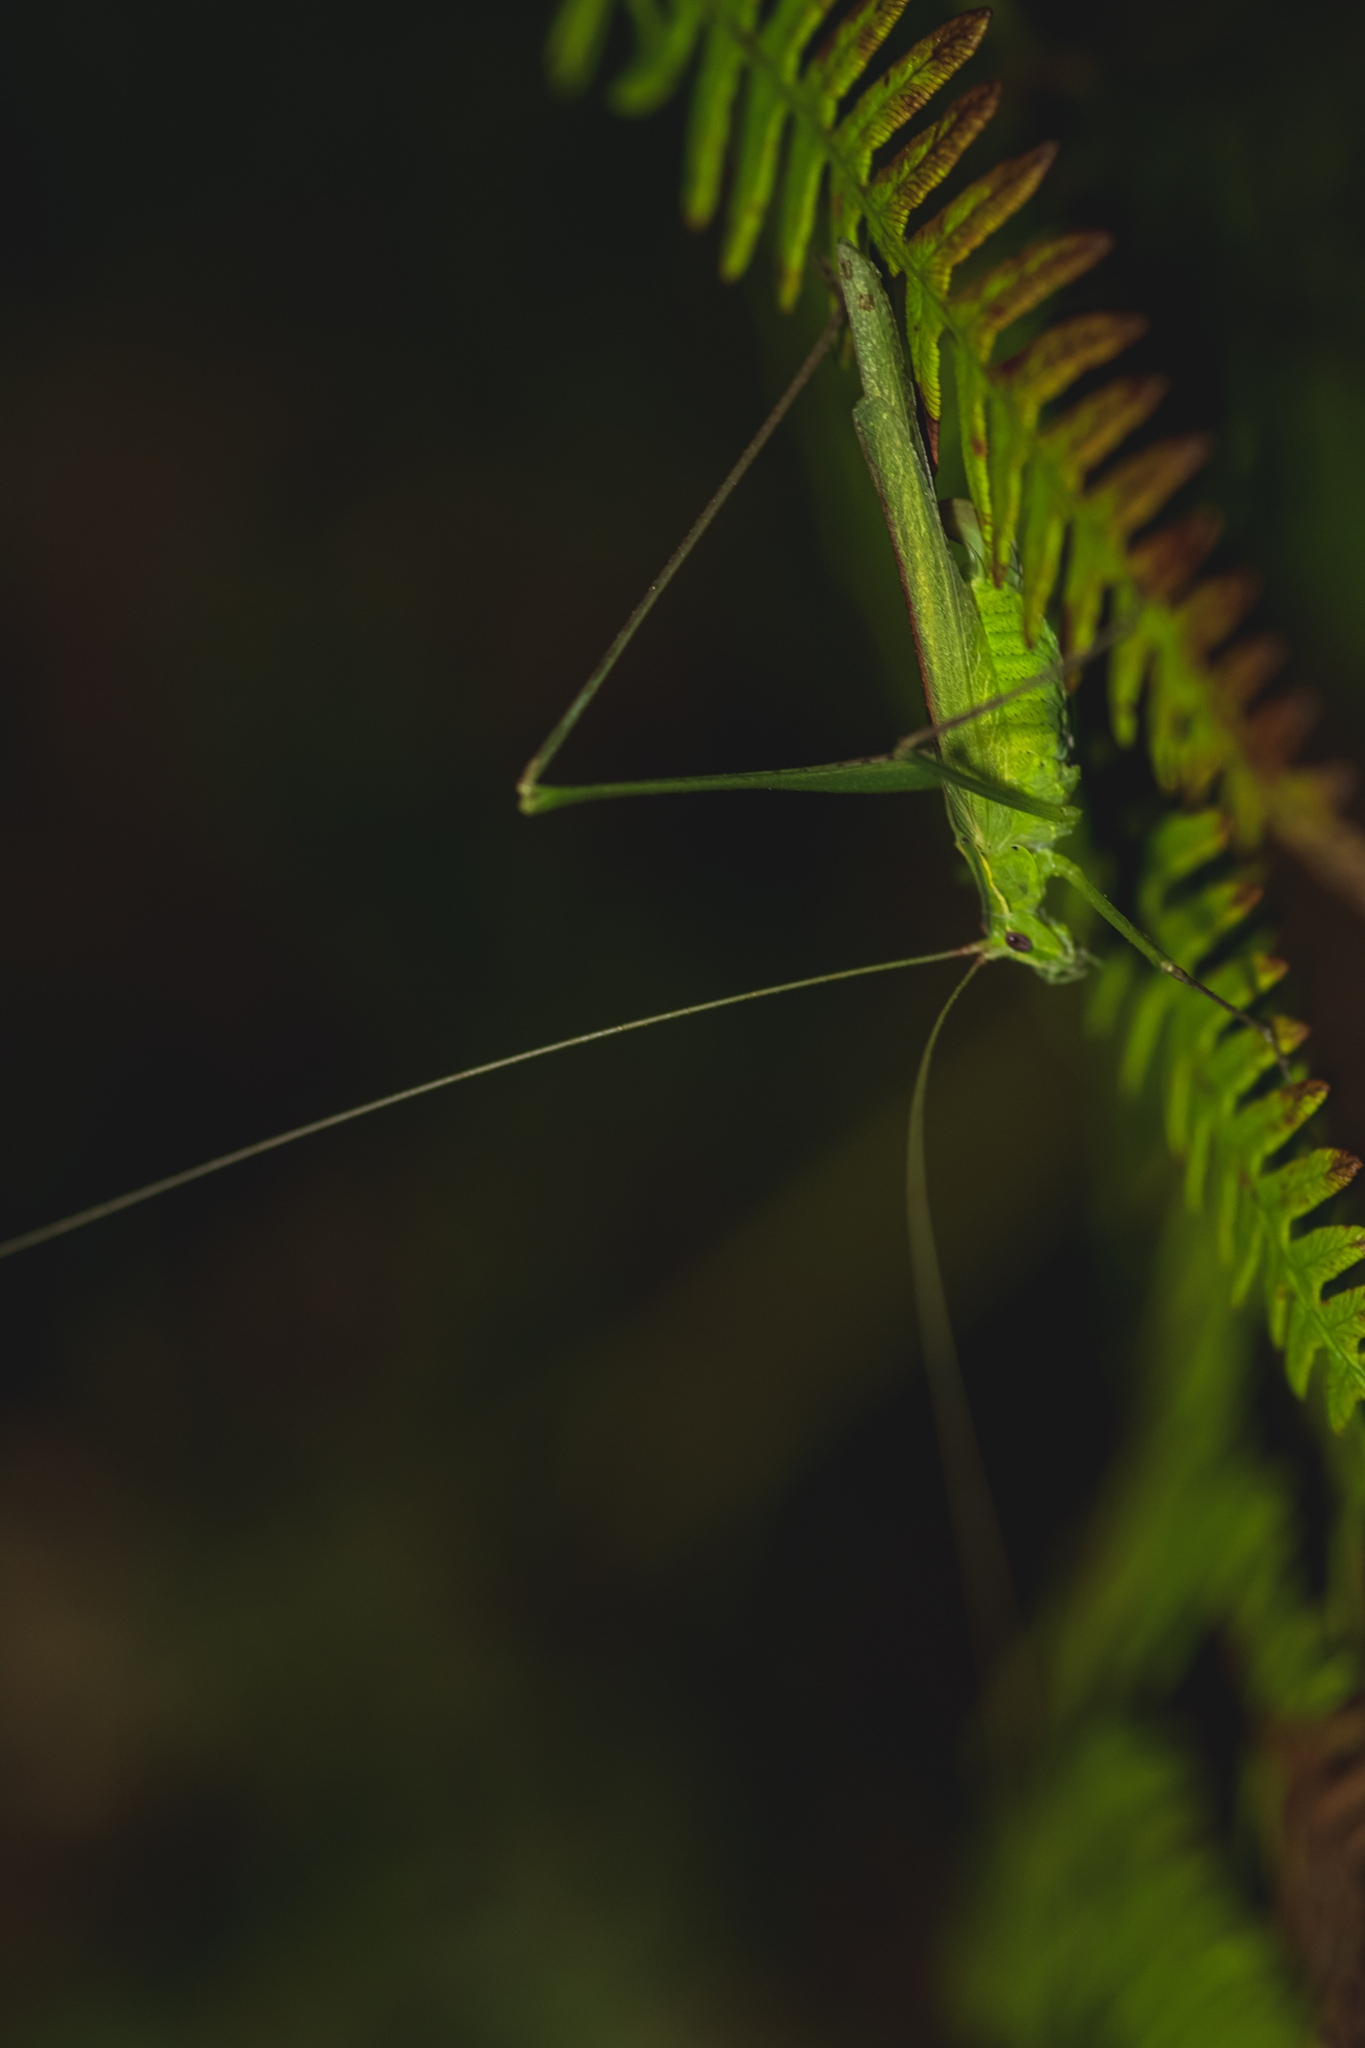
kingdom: Animalia
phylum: Arthropoda
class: Insecta
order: Orthoptera
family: Tettigoniidae
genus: Tylopsis
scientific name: Tylopsis lilifolia
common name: Lily bush-cricket
